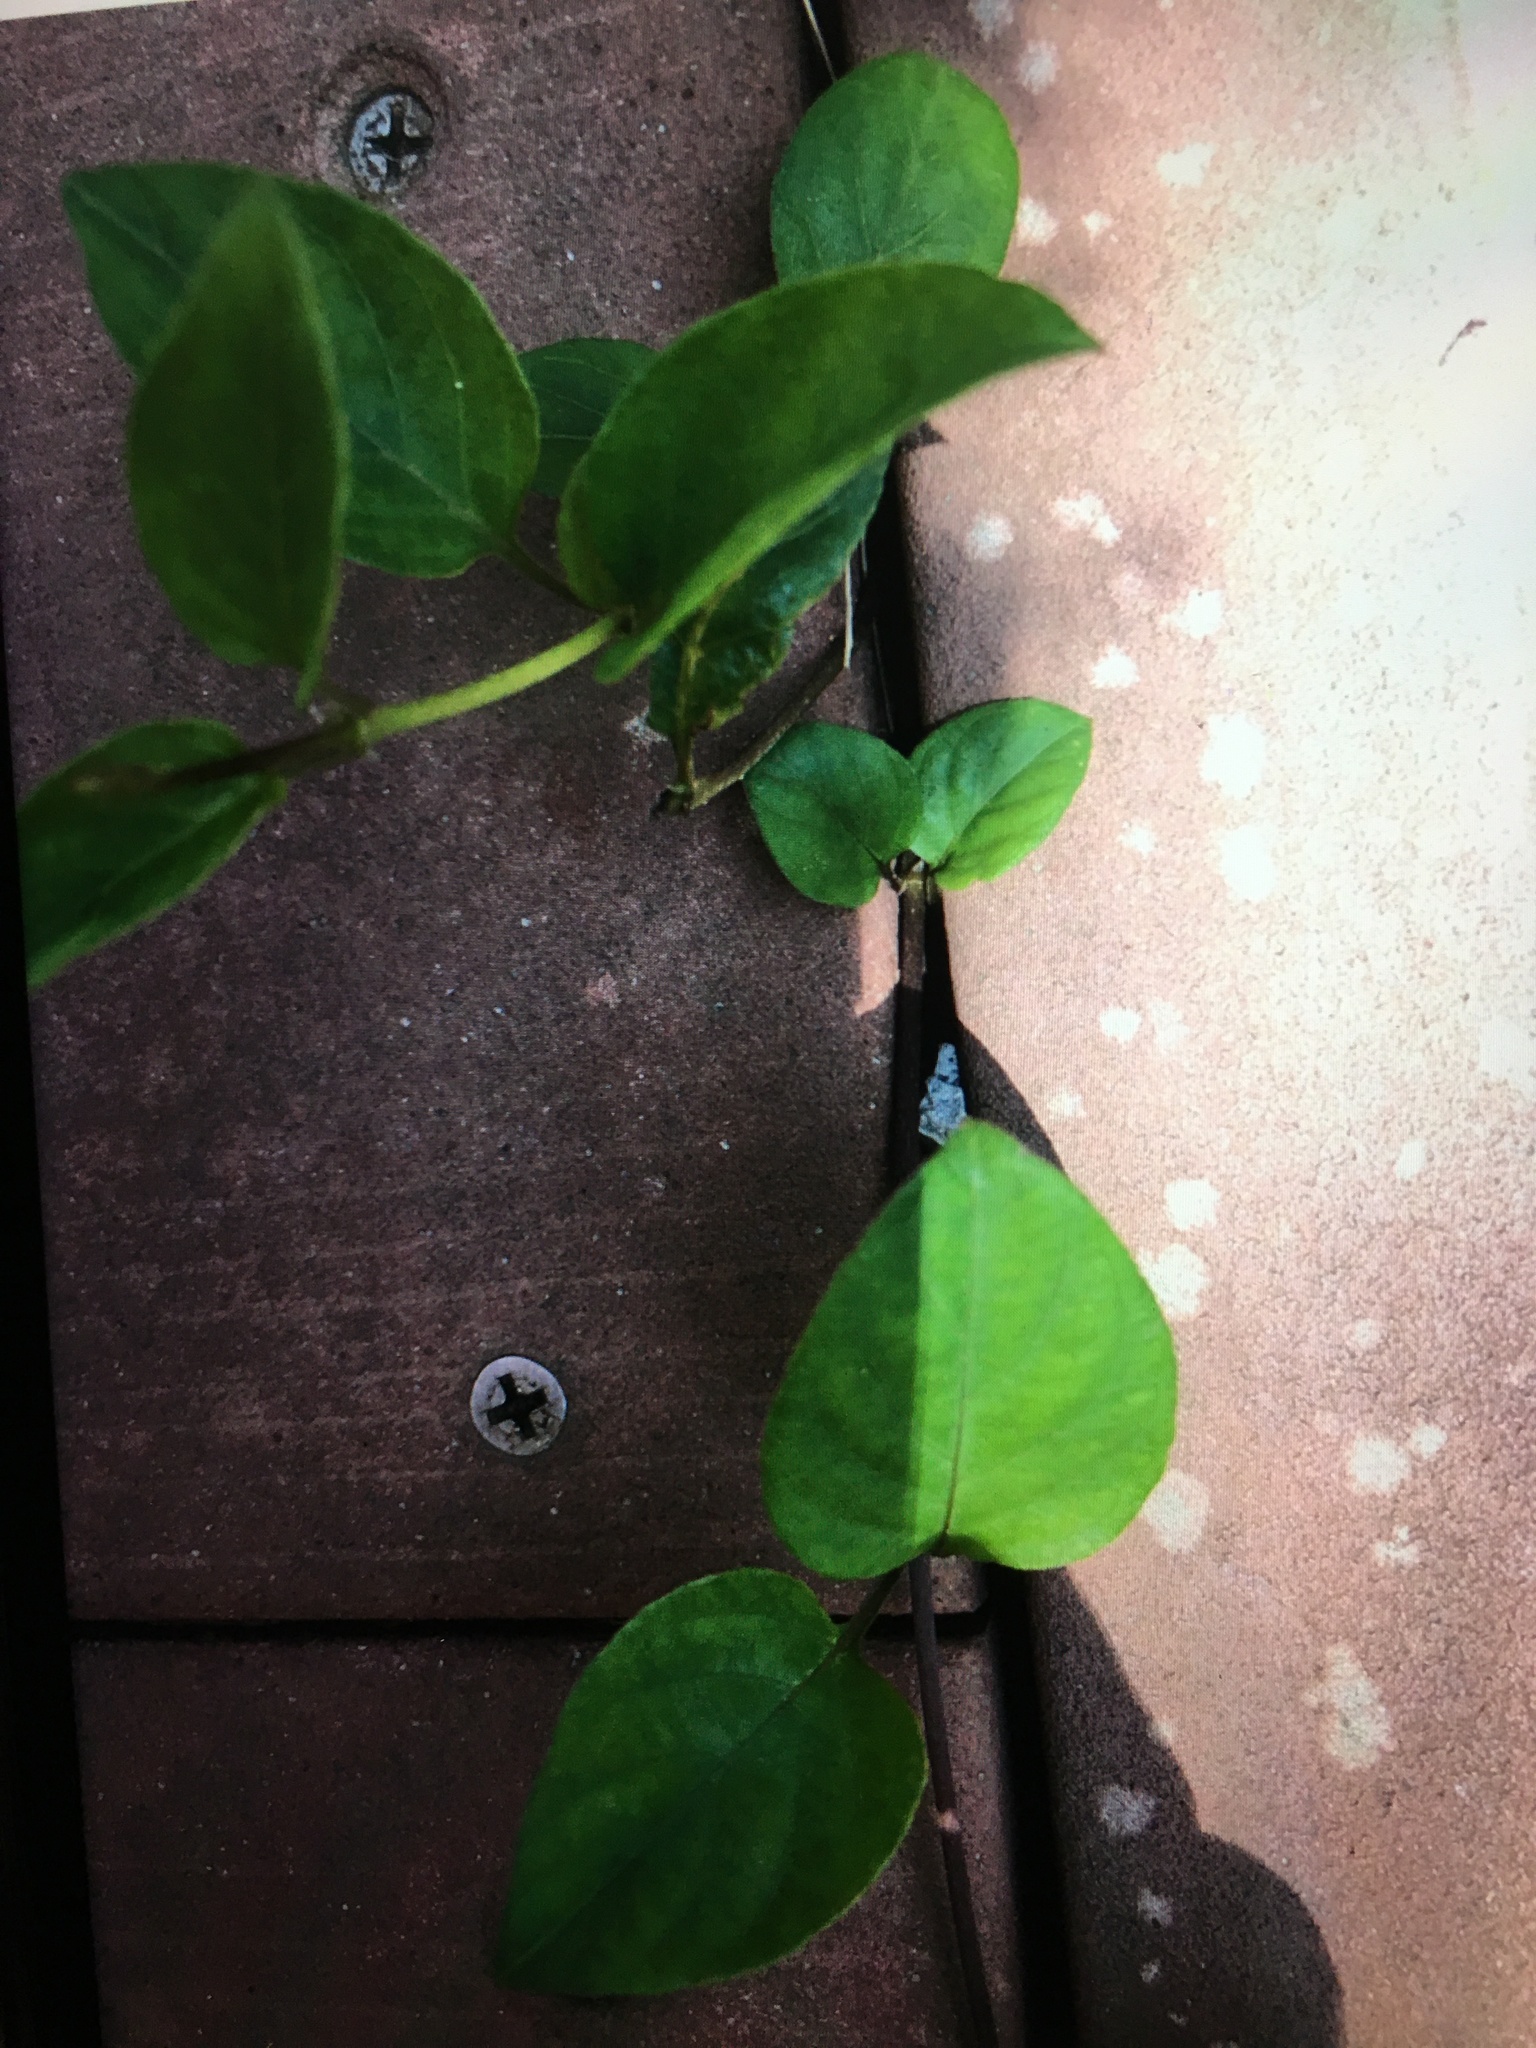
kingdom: Plantae
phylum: Tracheophyta
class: Magnoliopsida
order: Gentianales
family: Rubiaceae
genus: Paederia
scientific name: Paederia foetida
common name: Stinkvine
